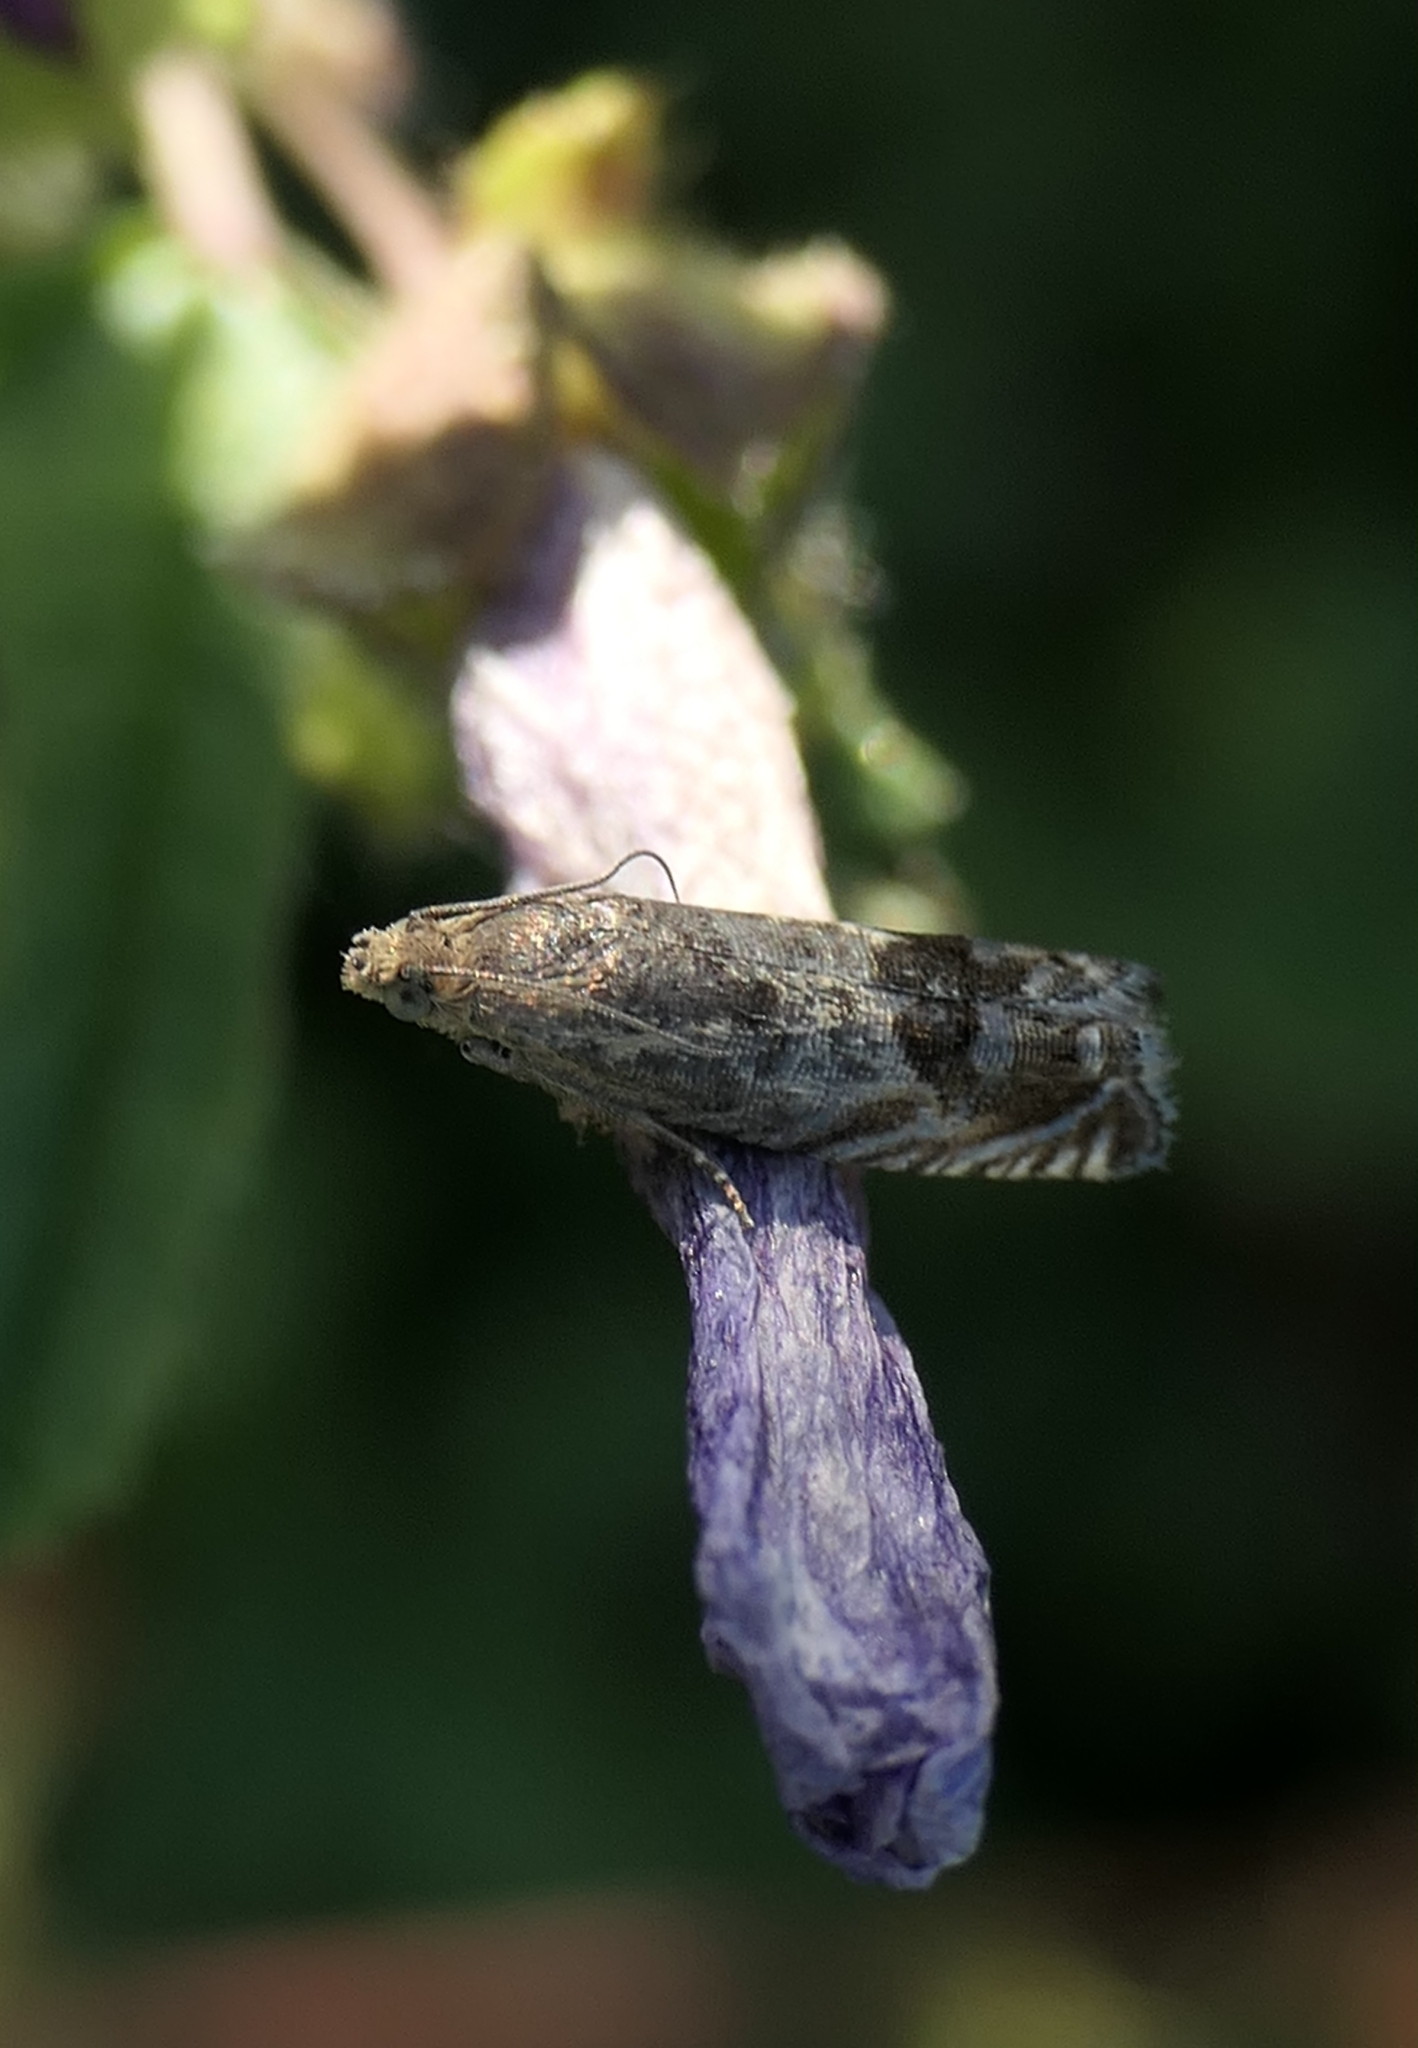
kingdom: Animalia
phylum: Arthropoda
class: Insecta
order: Lepidoptera
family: Tortricidae
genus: Cydia
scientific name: Cydia succedana
